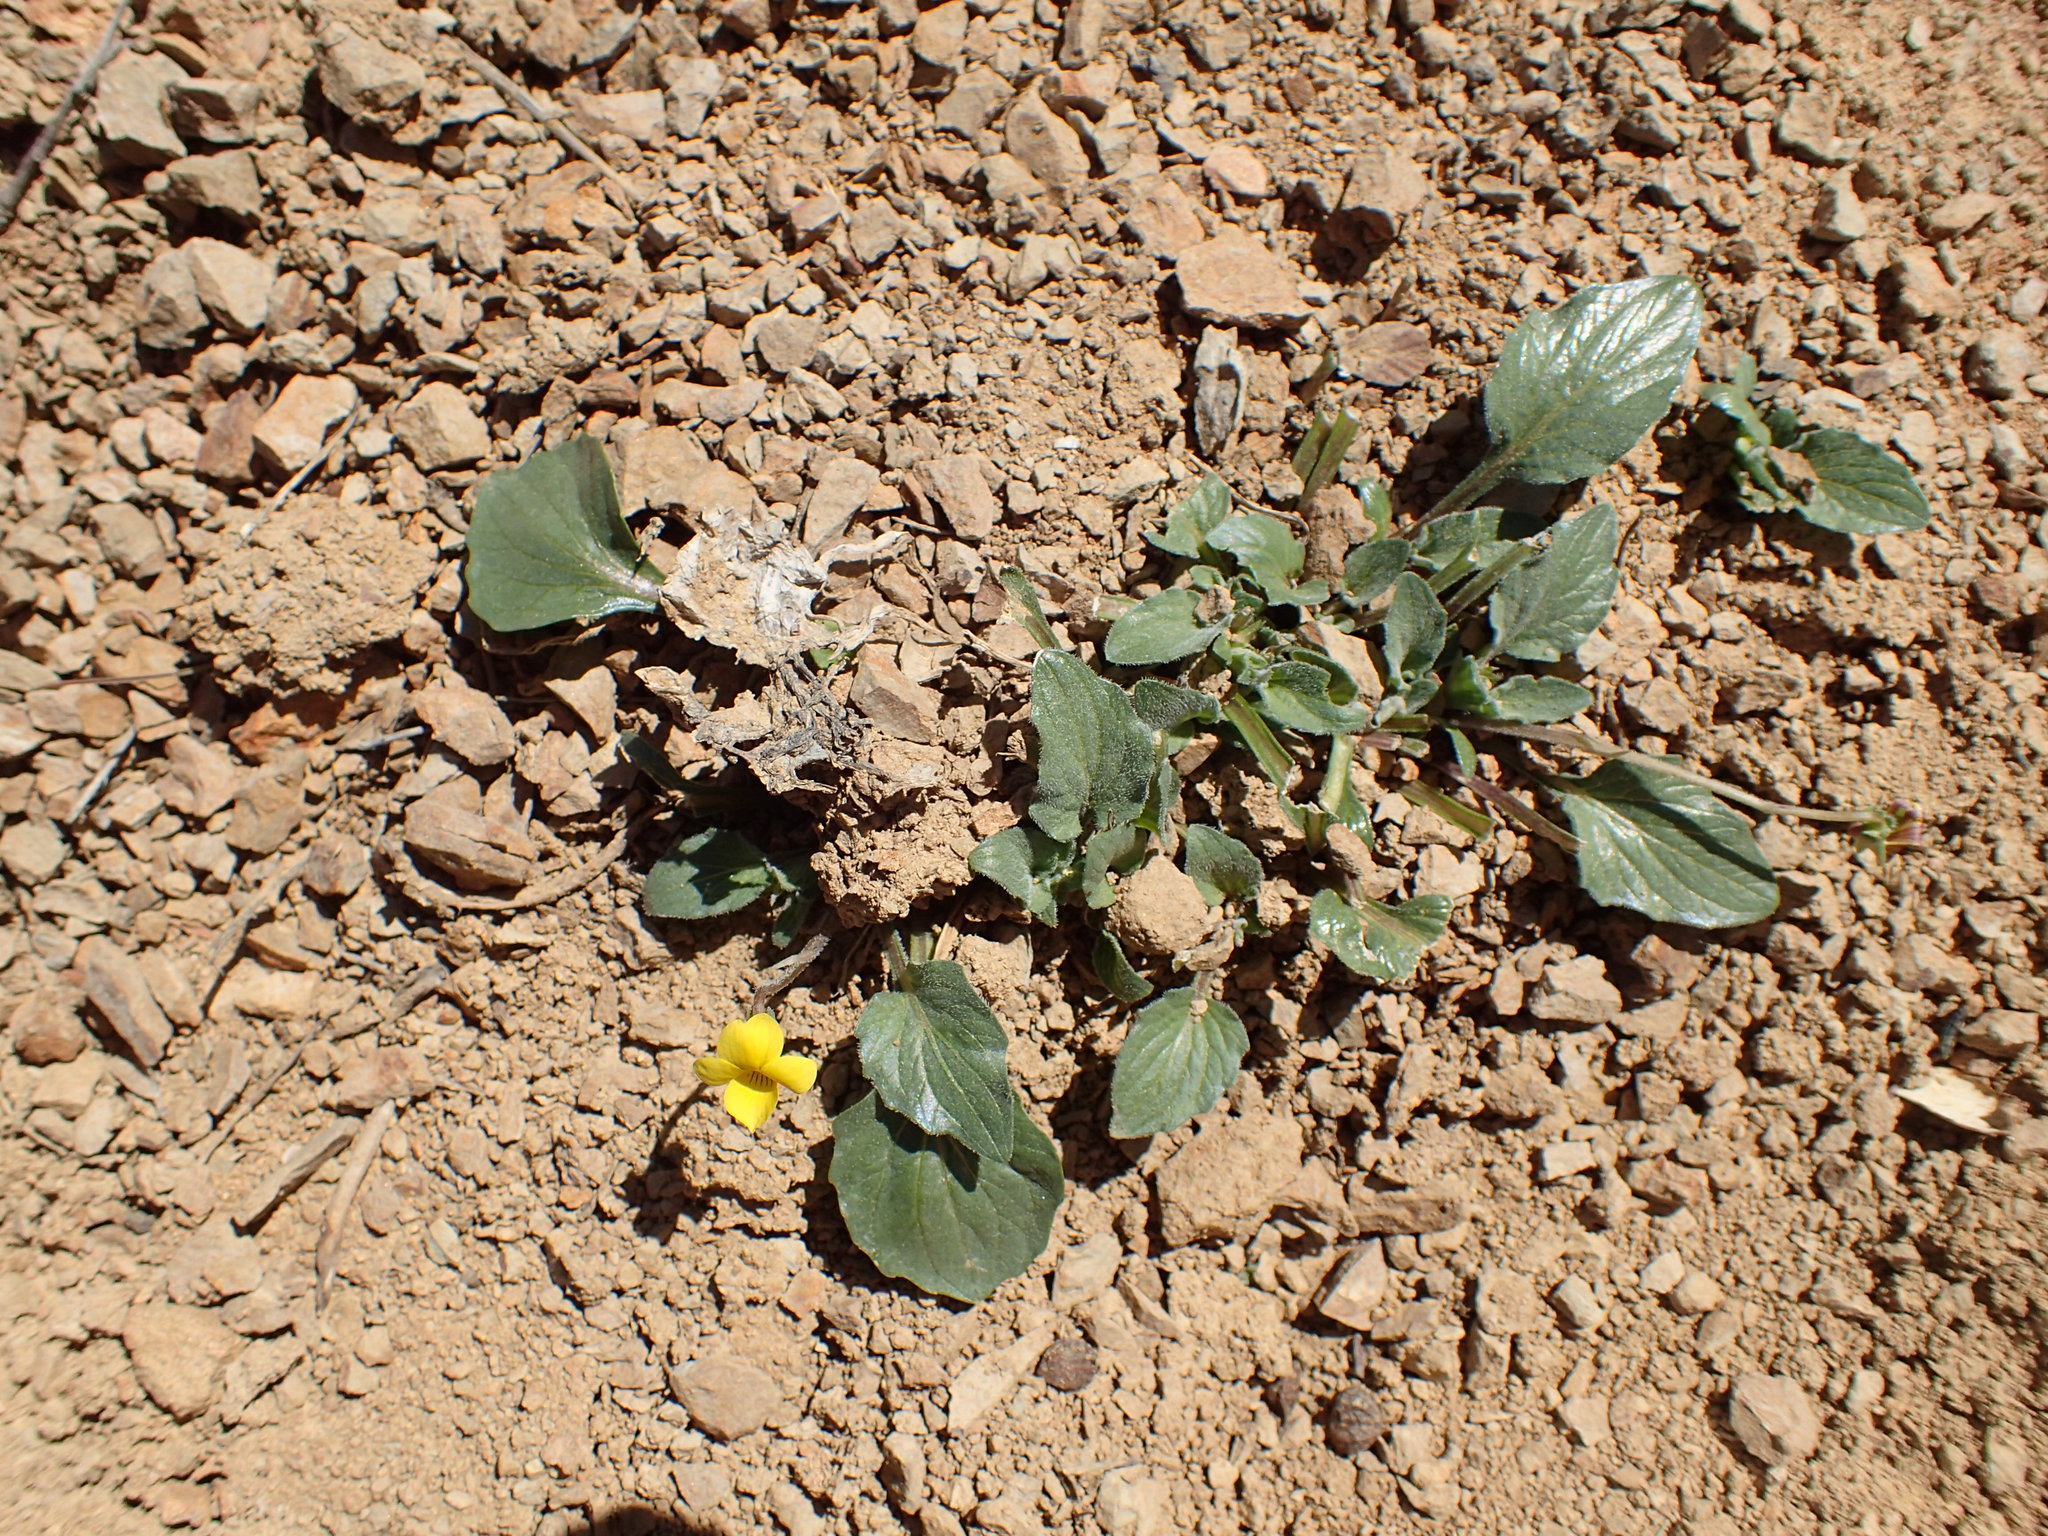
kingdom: Plantae
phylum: Tracheophyta
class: Magnoliopsida
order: Malpighiales
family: Violaceae
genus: Viola
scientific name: Viola purpurea
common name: Pine violet
